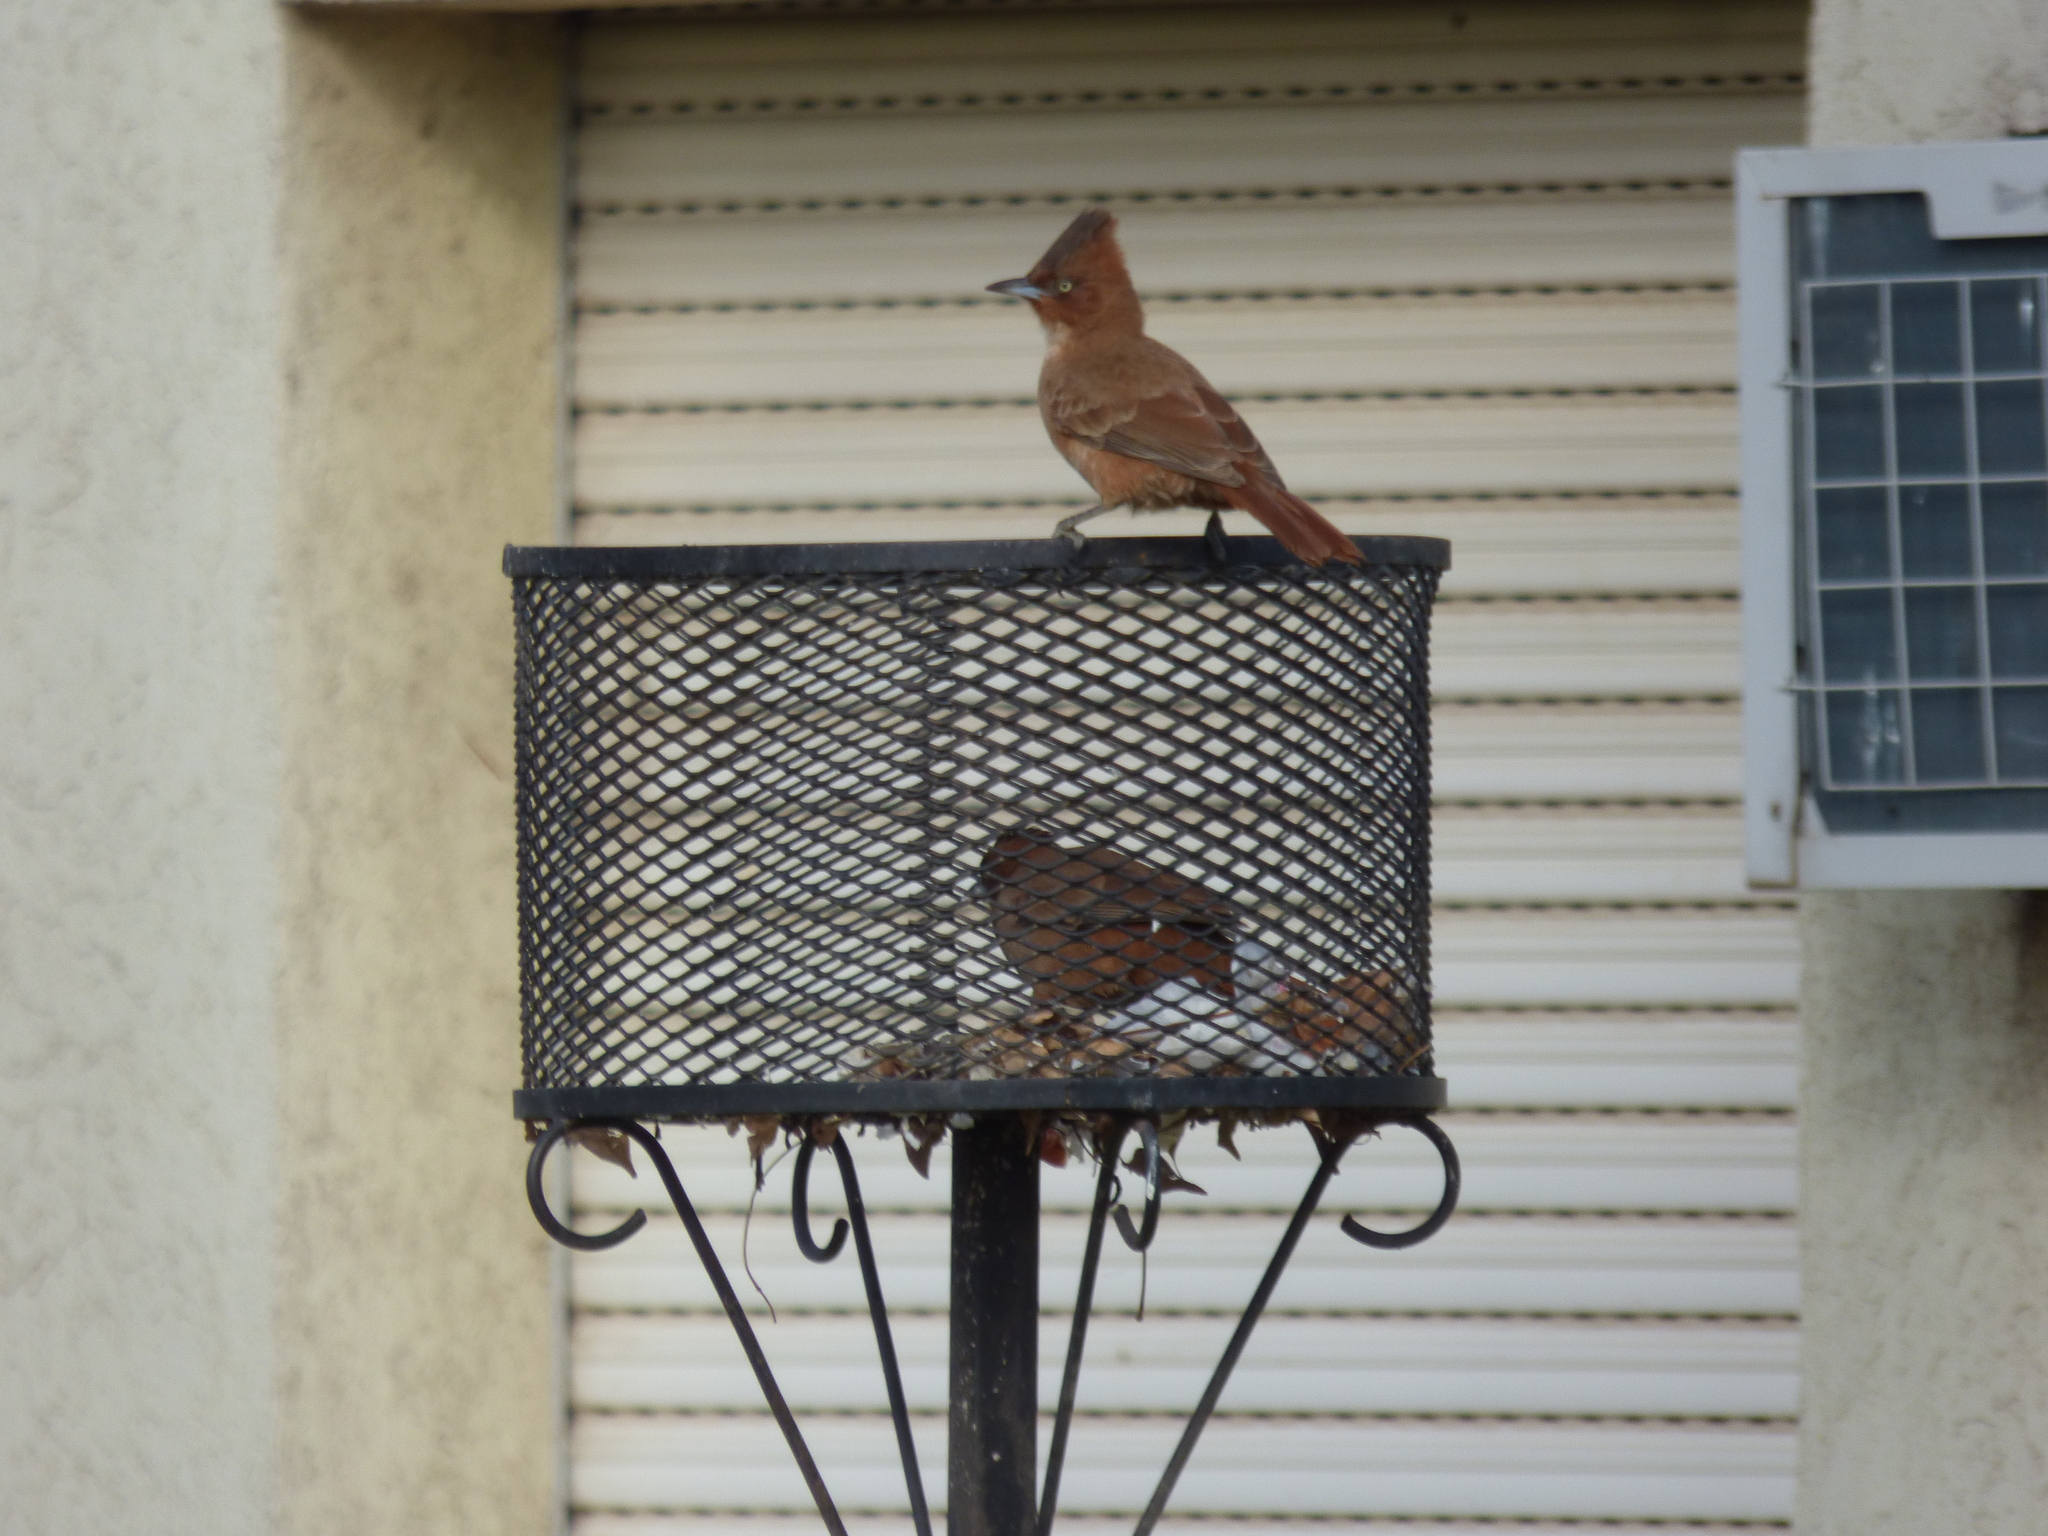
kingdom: Animalia
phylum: Chordata
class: Aves
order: Passeriformes
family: Furnariidae
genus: Pseudoseisura
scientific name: Pseudoseisura lophotes
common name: Brown cacholote
